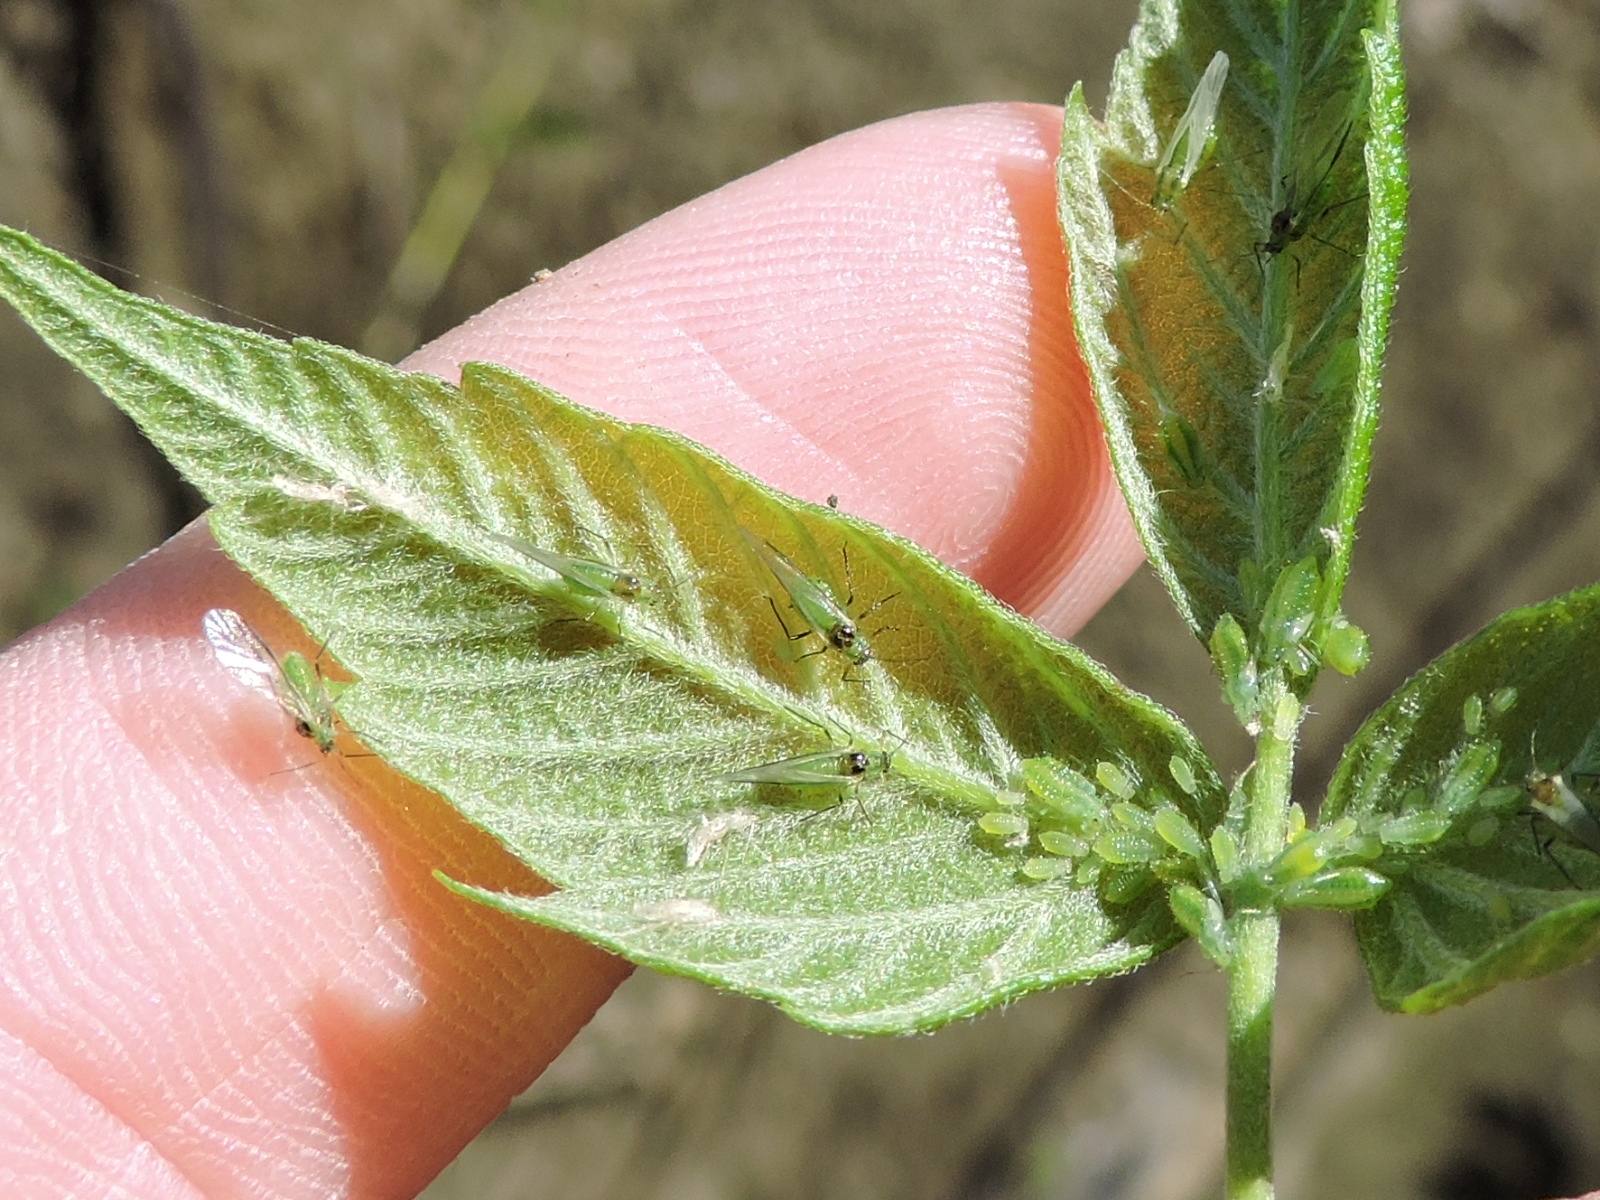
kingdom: Animalia
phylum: Arthropoda
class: Insecta
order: Hemiptera
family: Aphididae
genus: Periphyllus
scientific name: Periphyllus negundinis
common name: Boxelder aphid
